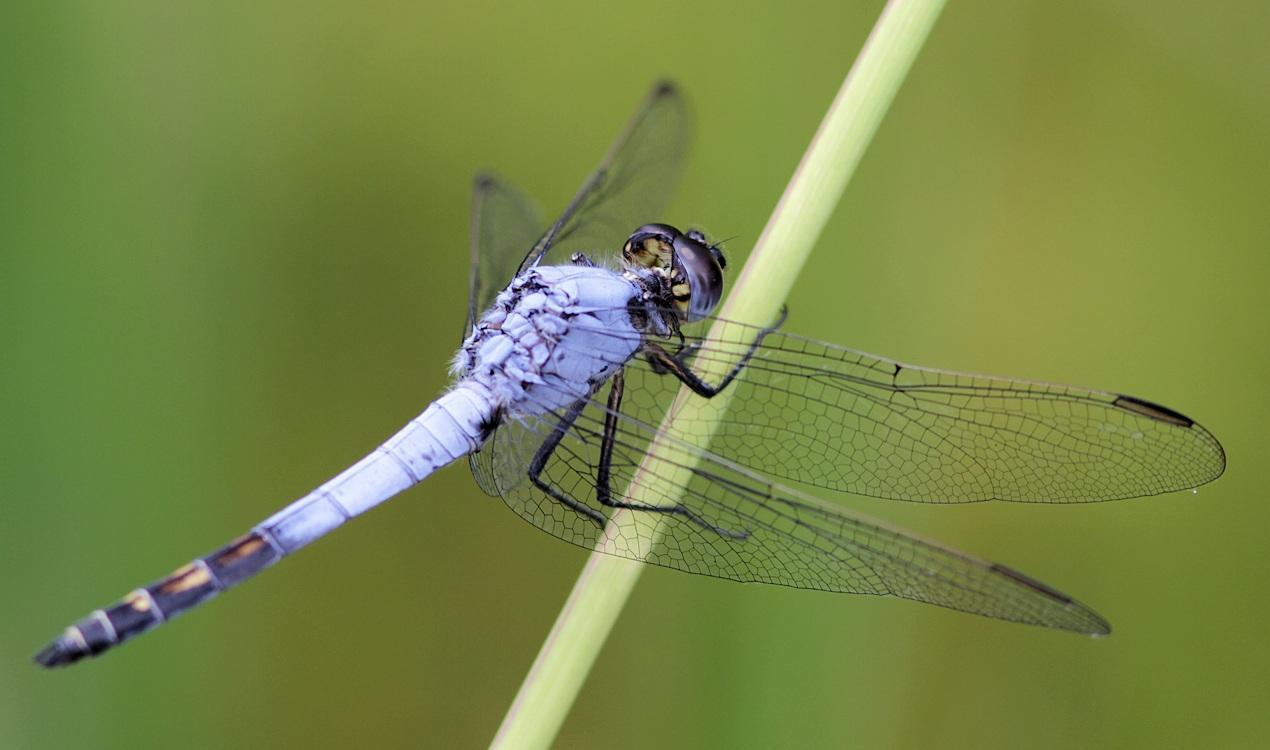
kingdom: Animalia
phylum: Arthropoda
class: Insecta
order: Odonata
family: Libellulidae
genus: Nesciothemis
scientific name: Nesciothemis farinosa
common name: Eastern blacktail
